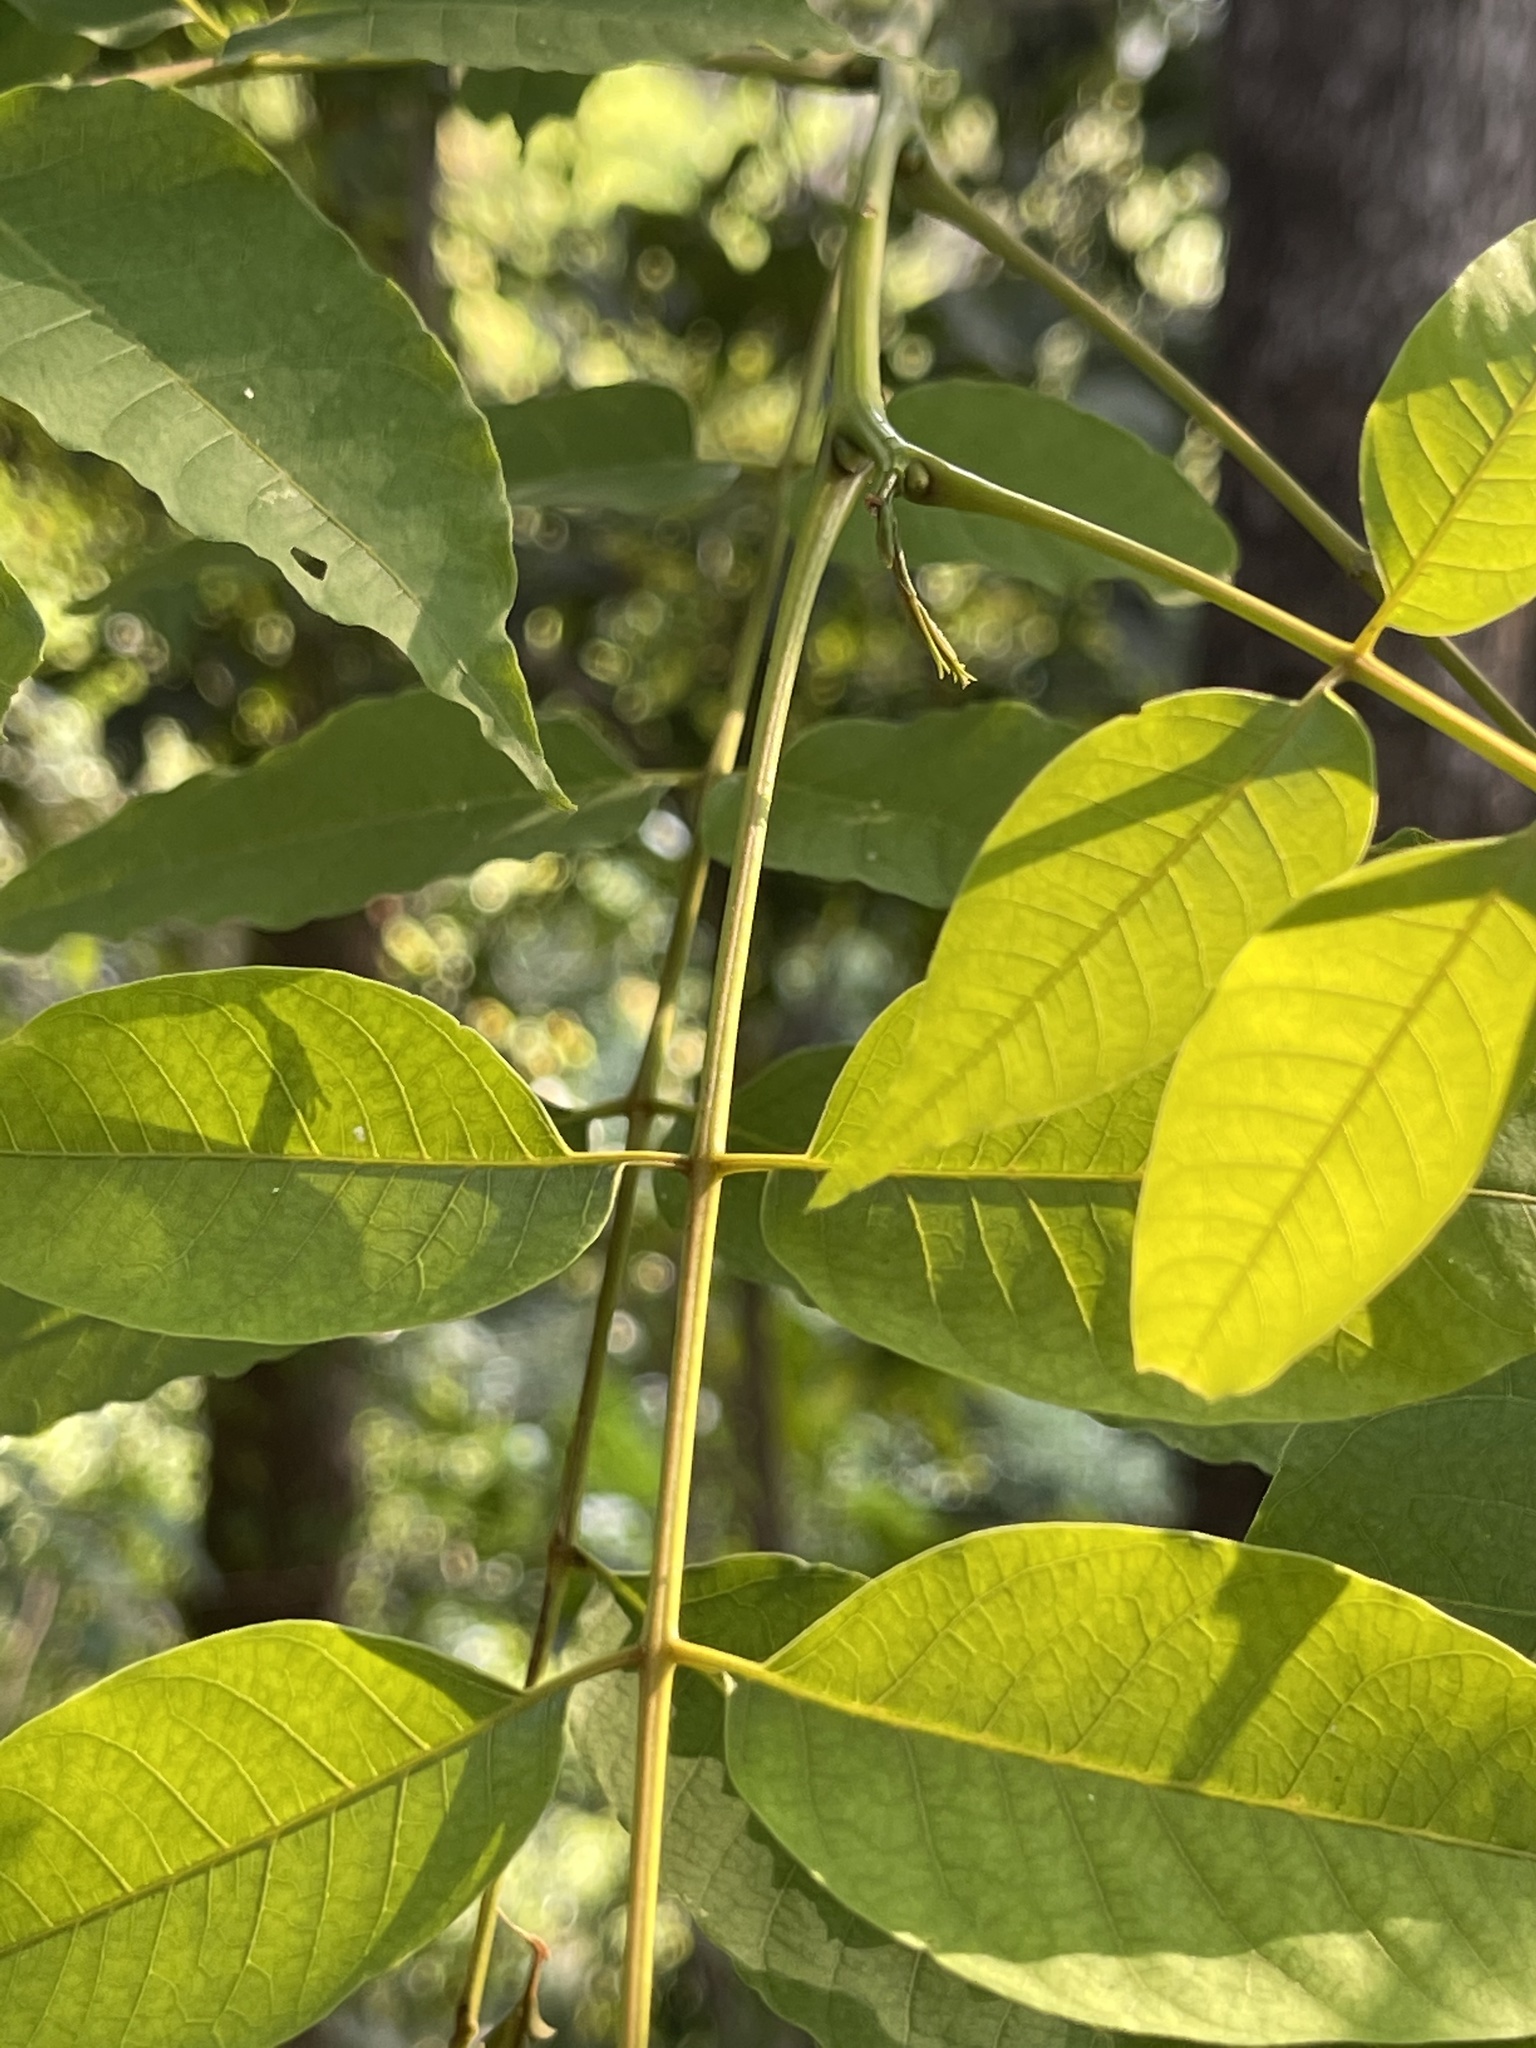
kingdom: Plantae
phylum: Tracheophyta
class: Magnoliopsida
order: Sapindales
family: Anacardiaceae
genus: Choerospondias
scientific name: Choerospondias axillaris
